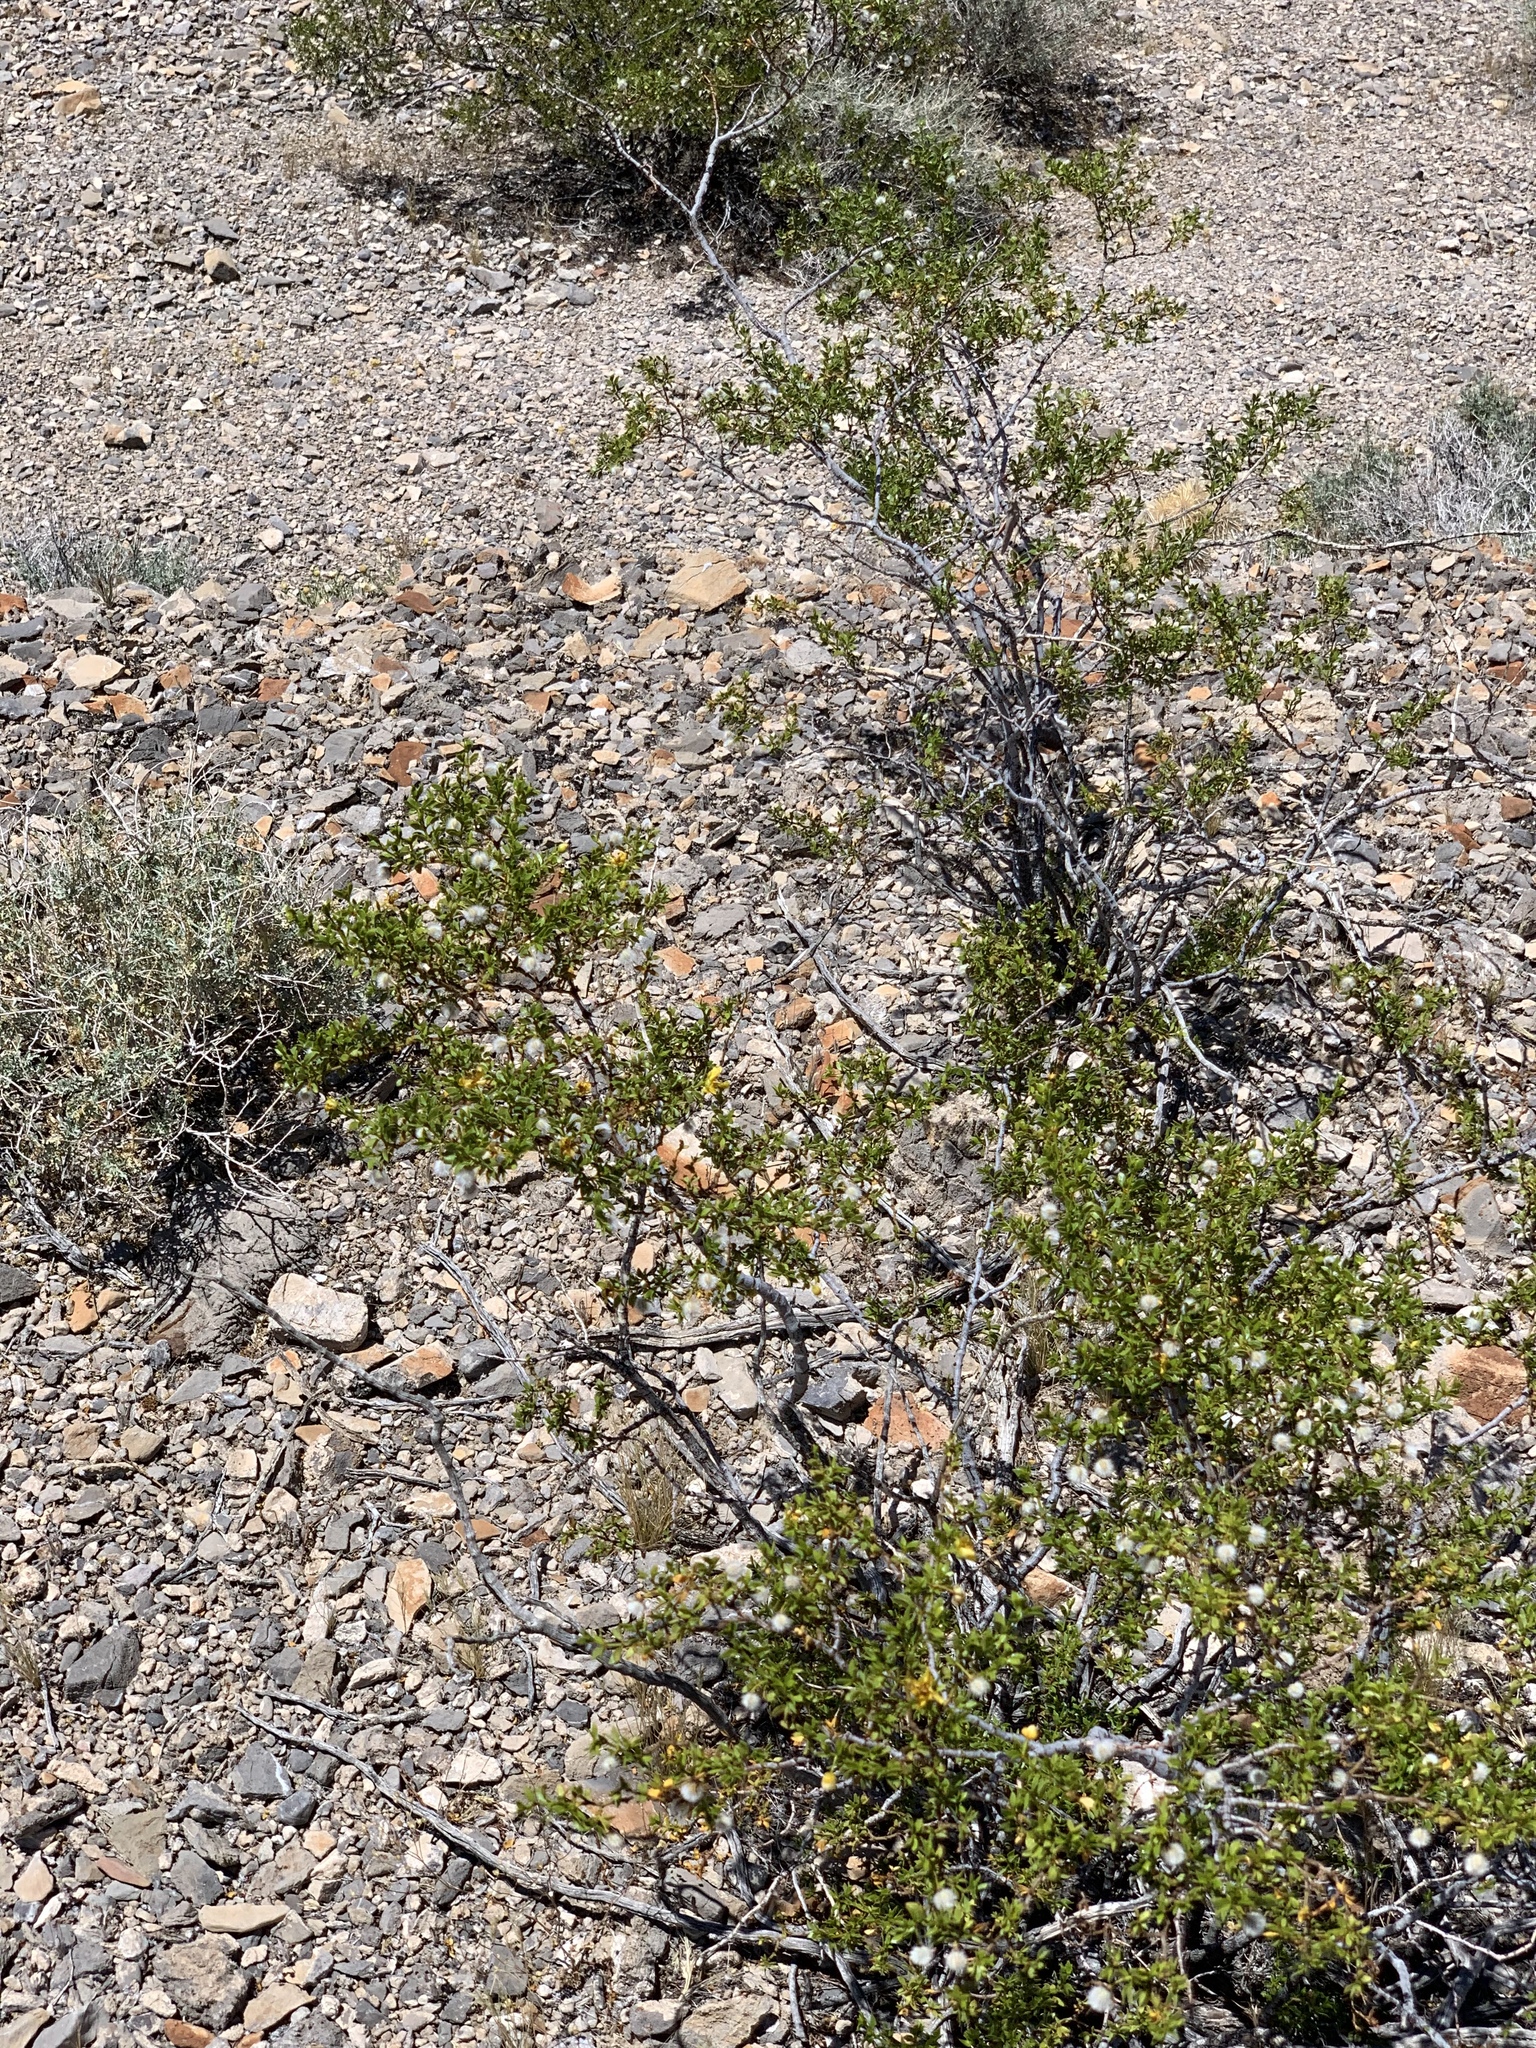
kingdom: Plantae
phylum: Tracheophyta
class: Magnoliopsida
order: Zygophyllales
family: Zygophyllaceae
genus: Larrea
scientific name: Larrea tridentata
